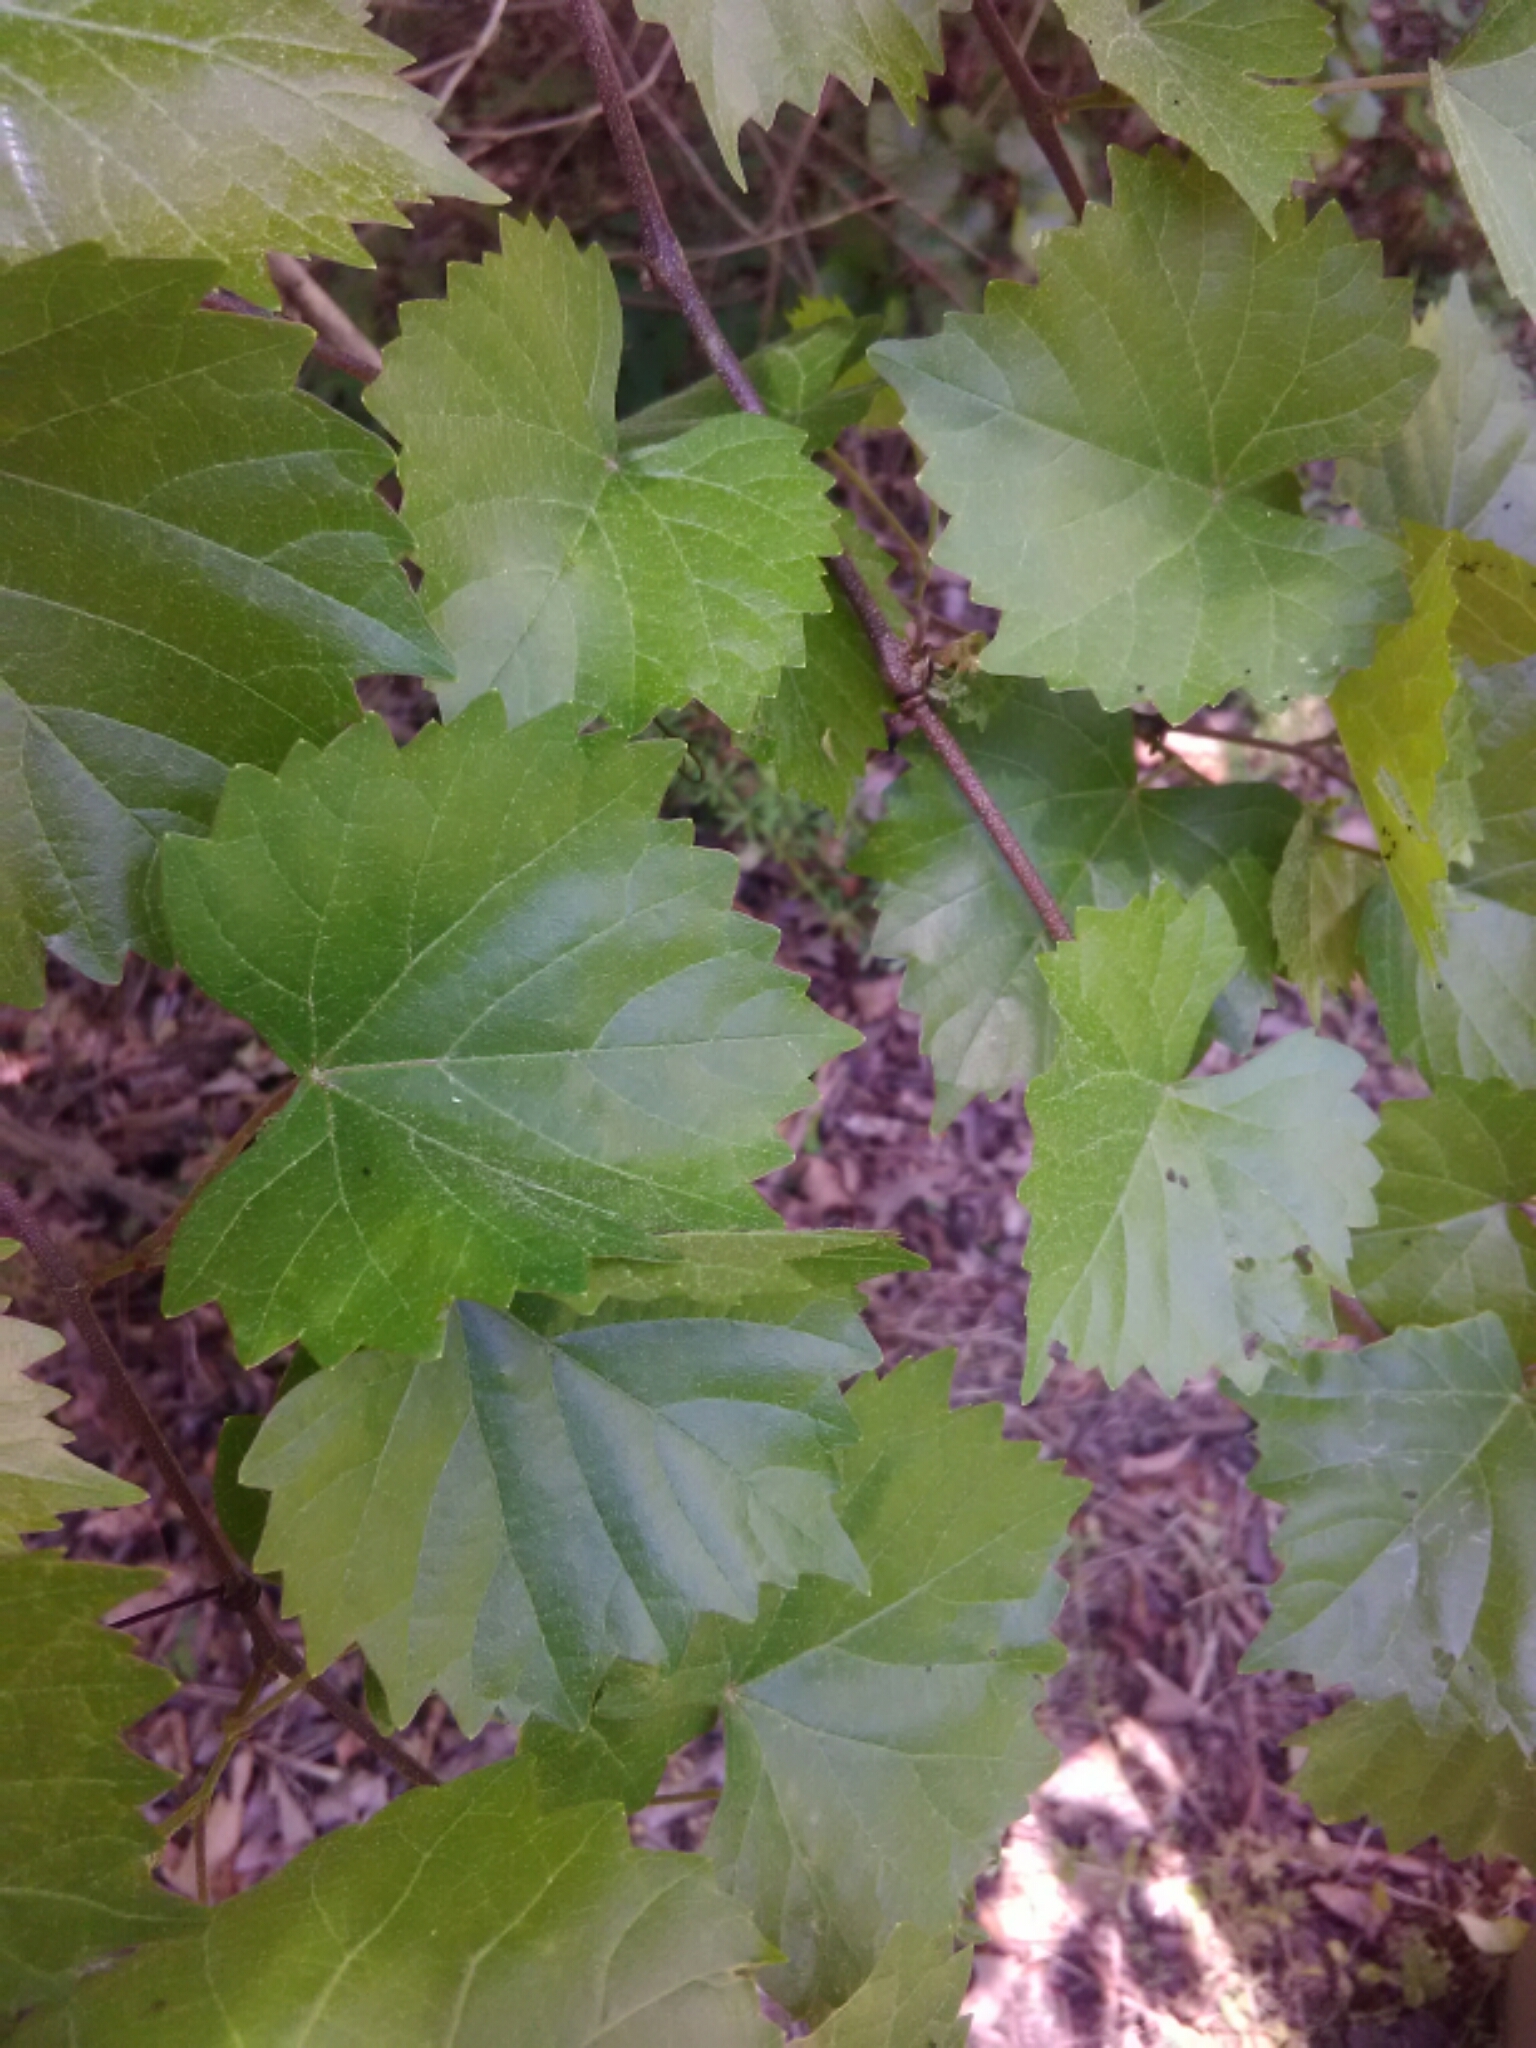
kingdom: Plantae
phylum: Tracheophyta
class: Magnoliopsida
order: Vitales
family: Vitaceae
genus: Vitis
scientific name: Vitis rotundifolia
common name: Muscadine grape
